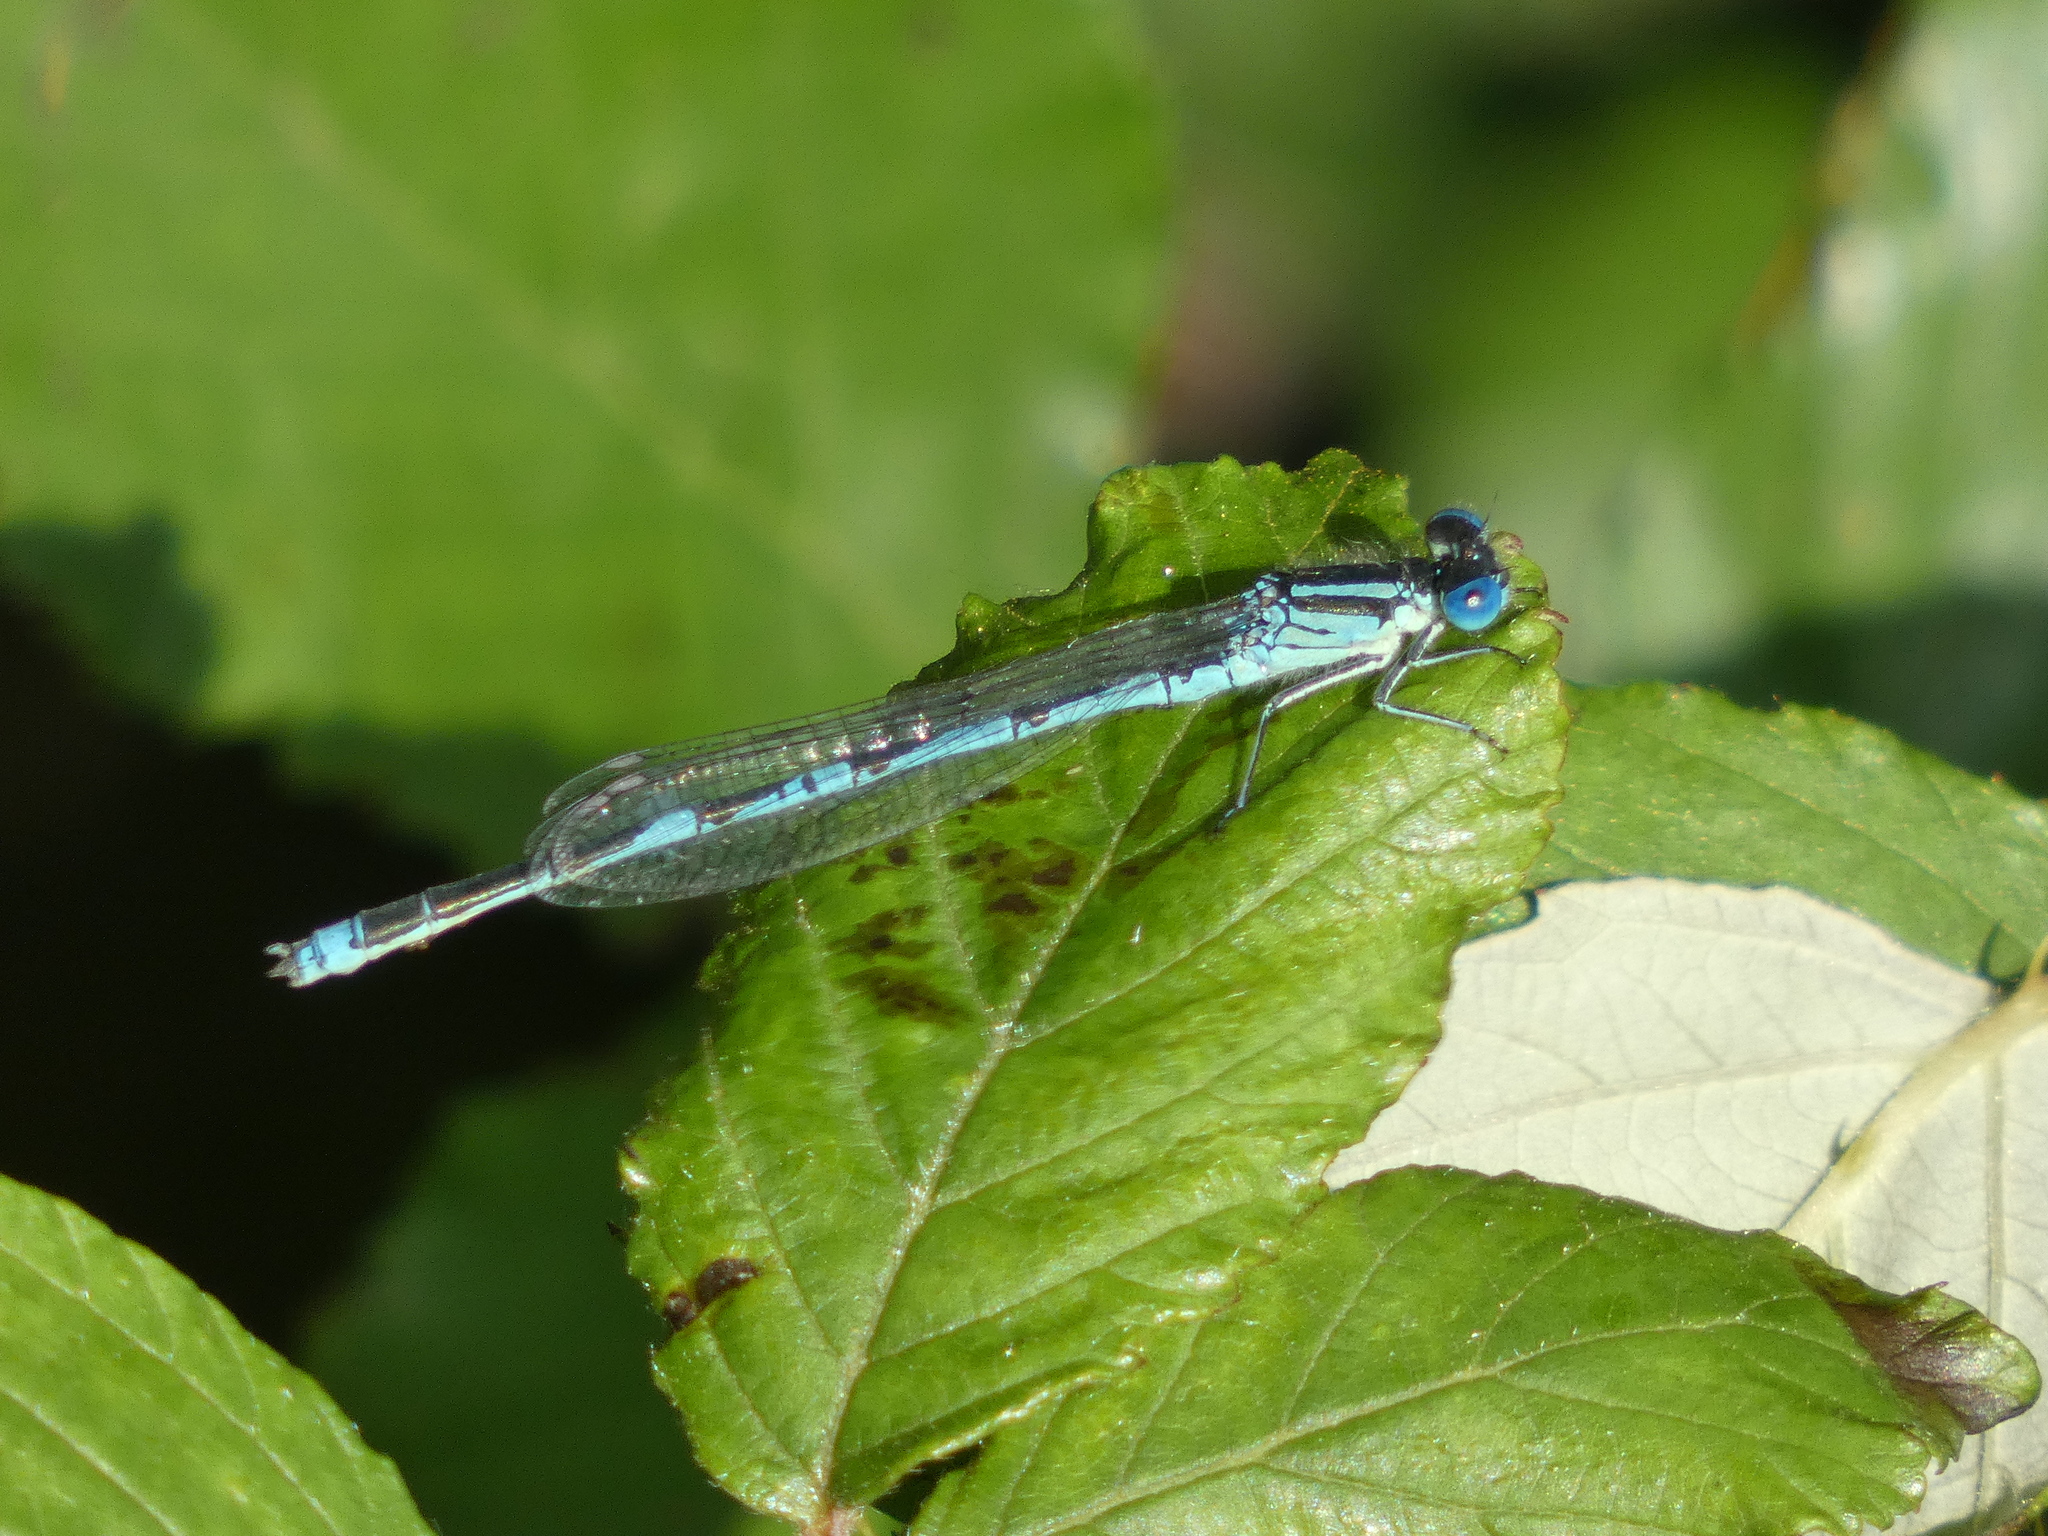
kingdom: Animalia
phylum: Arthropoda
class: Insecta
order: Odonata
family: Coenagrionidae
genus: Erythromma
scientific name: Erythromma lindenii
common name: Blue-eye
